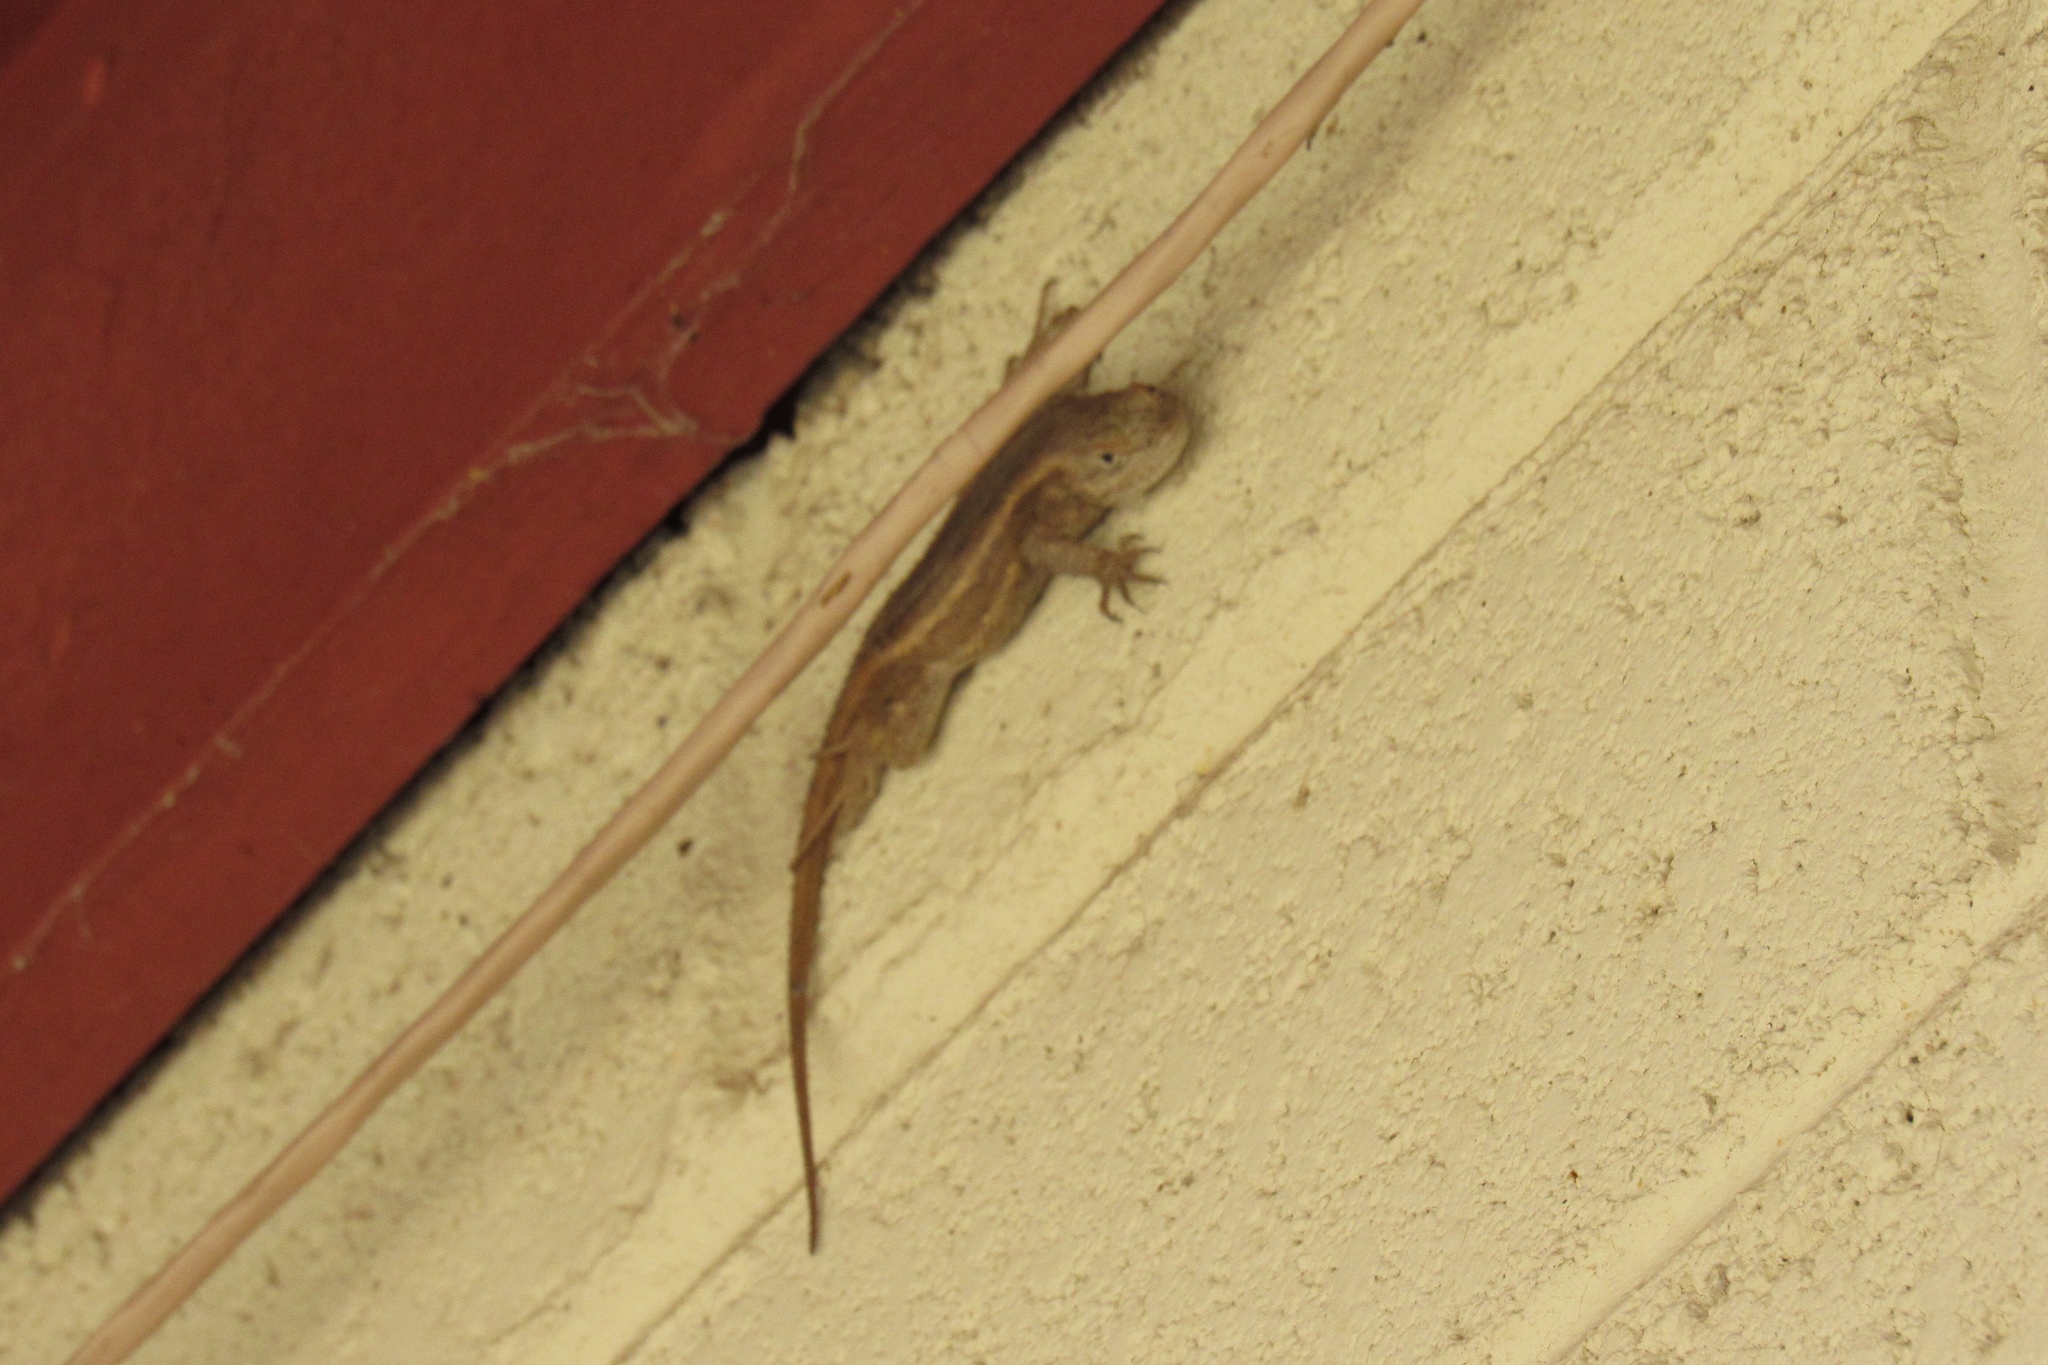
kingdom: Animalia
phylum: Chordata
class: Squamata
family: Phrynosomatidae
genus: Sceloporus
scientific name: Sceloporus cowlesi
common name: White sands prairie lizard
